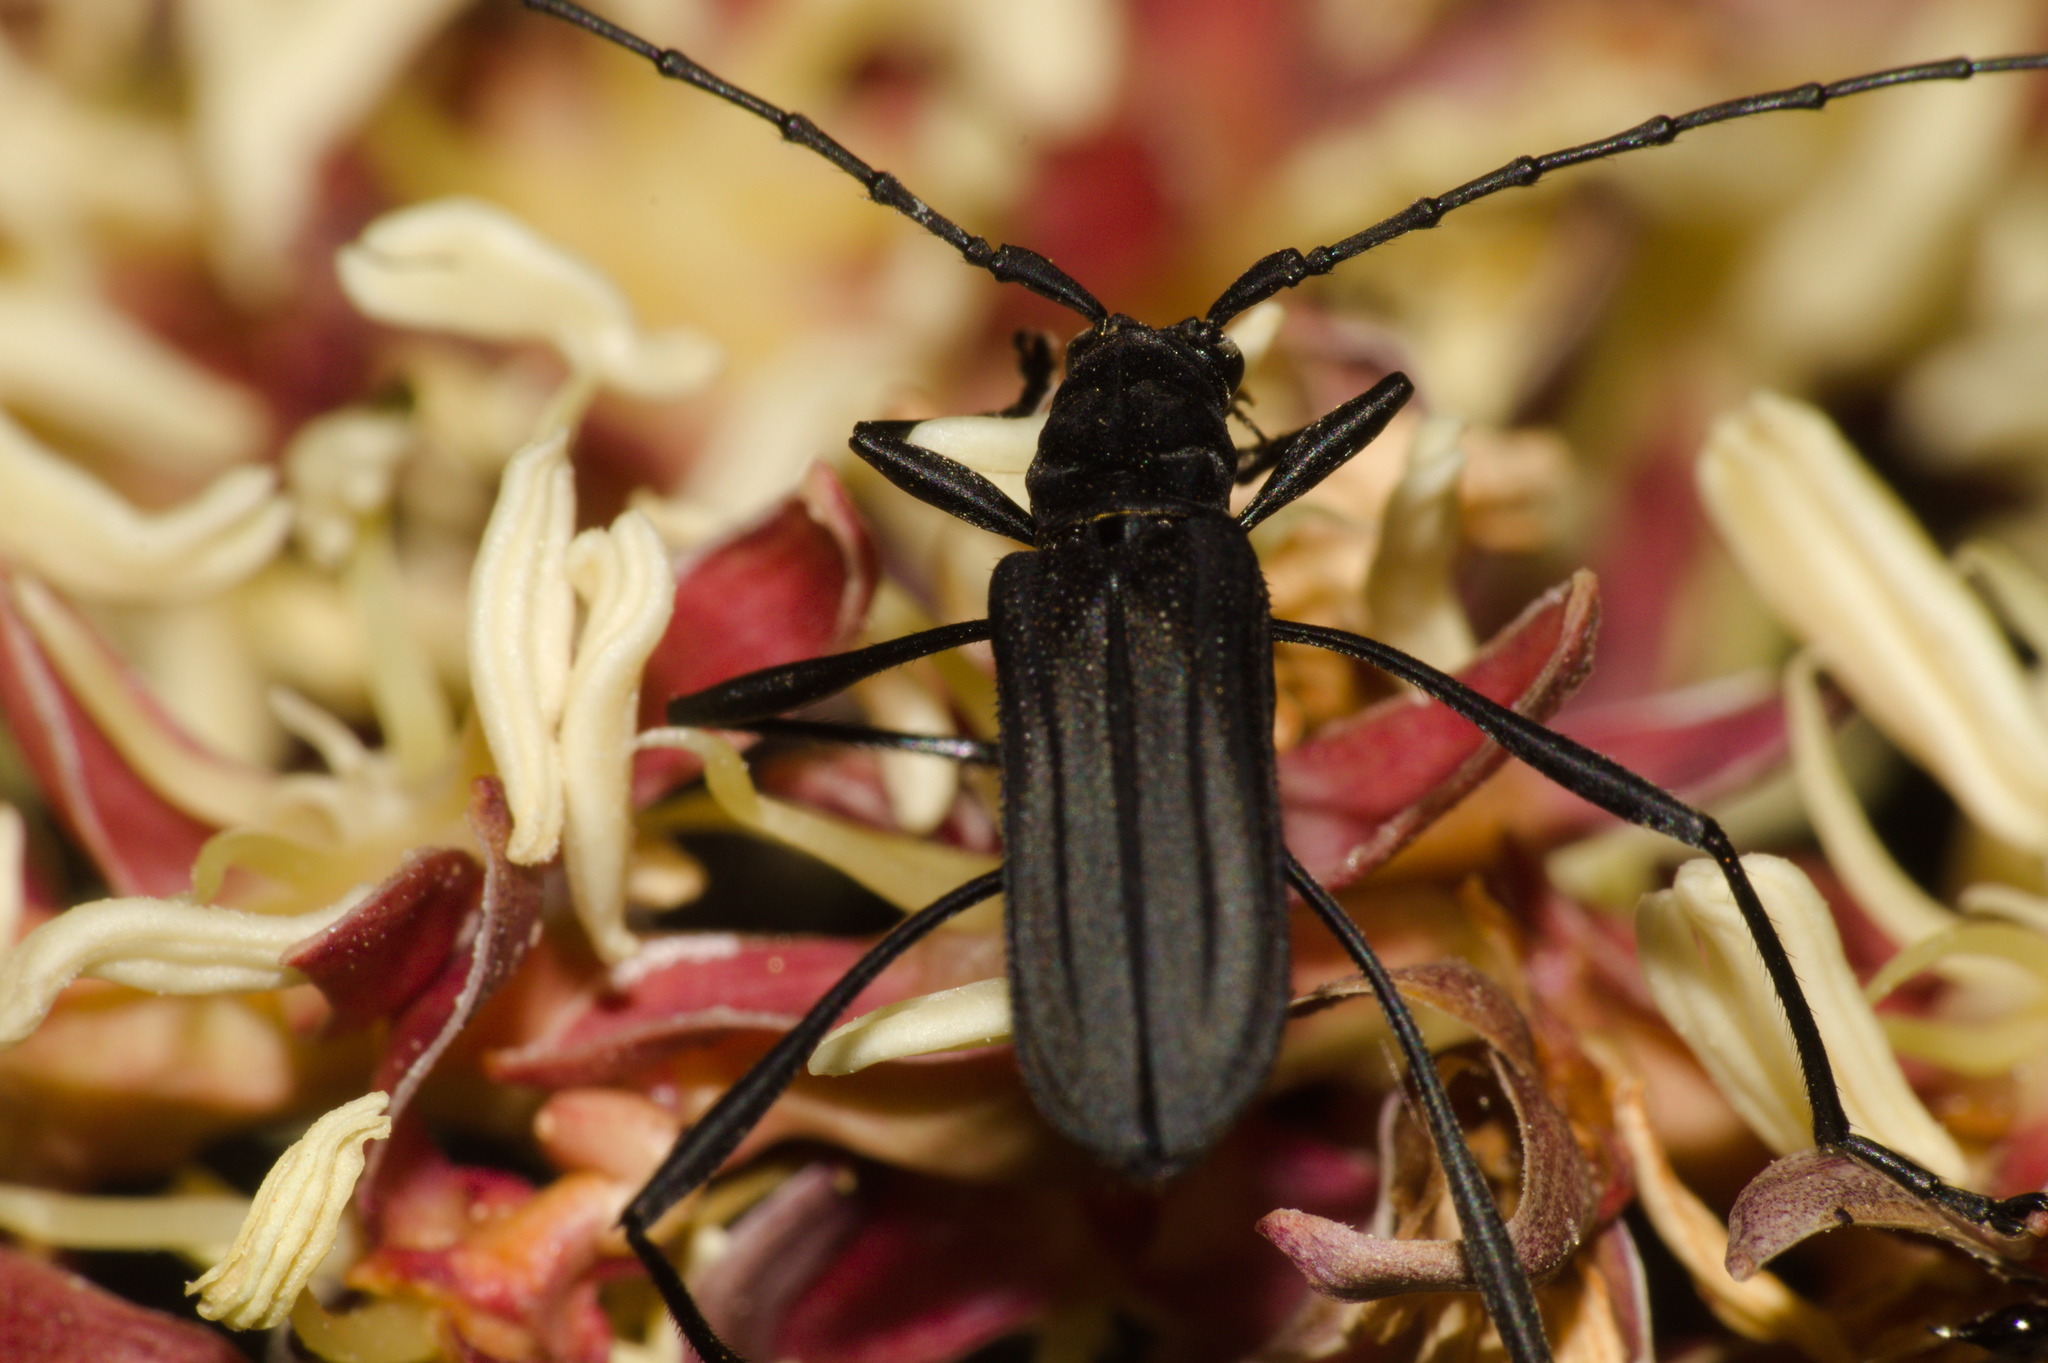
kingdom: Animalia
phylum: Arthropoda
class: Insecta
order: Coleoptera
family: Cerambycidae
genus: Listroptera
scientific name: Listroptera tenebricosa
